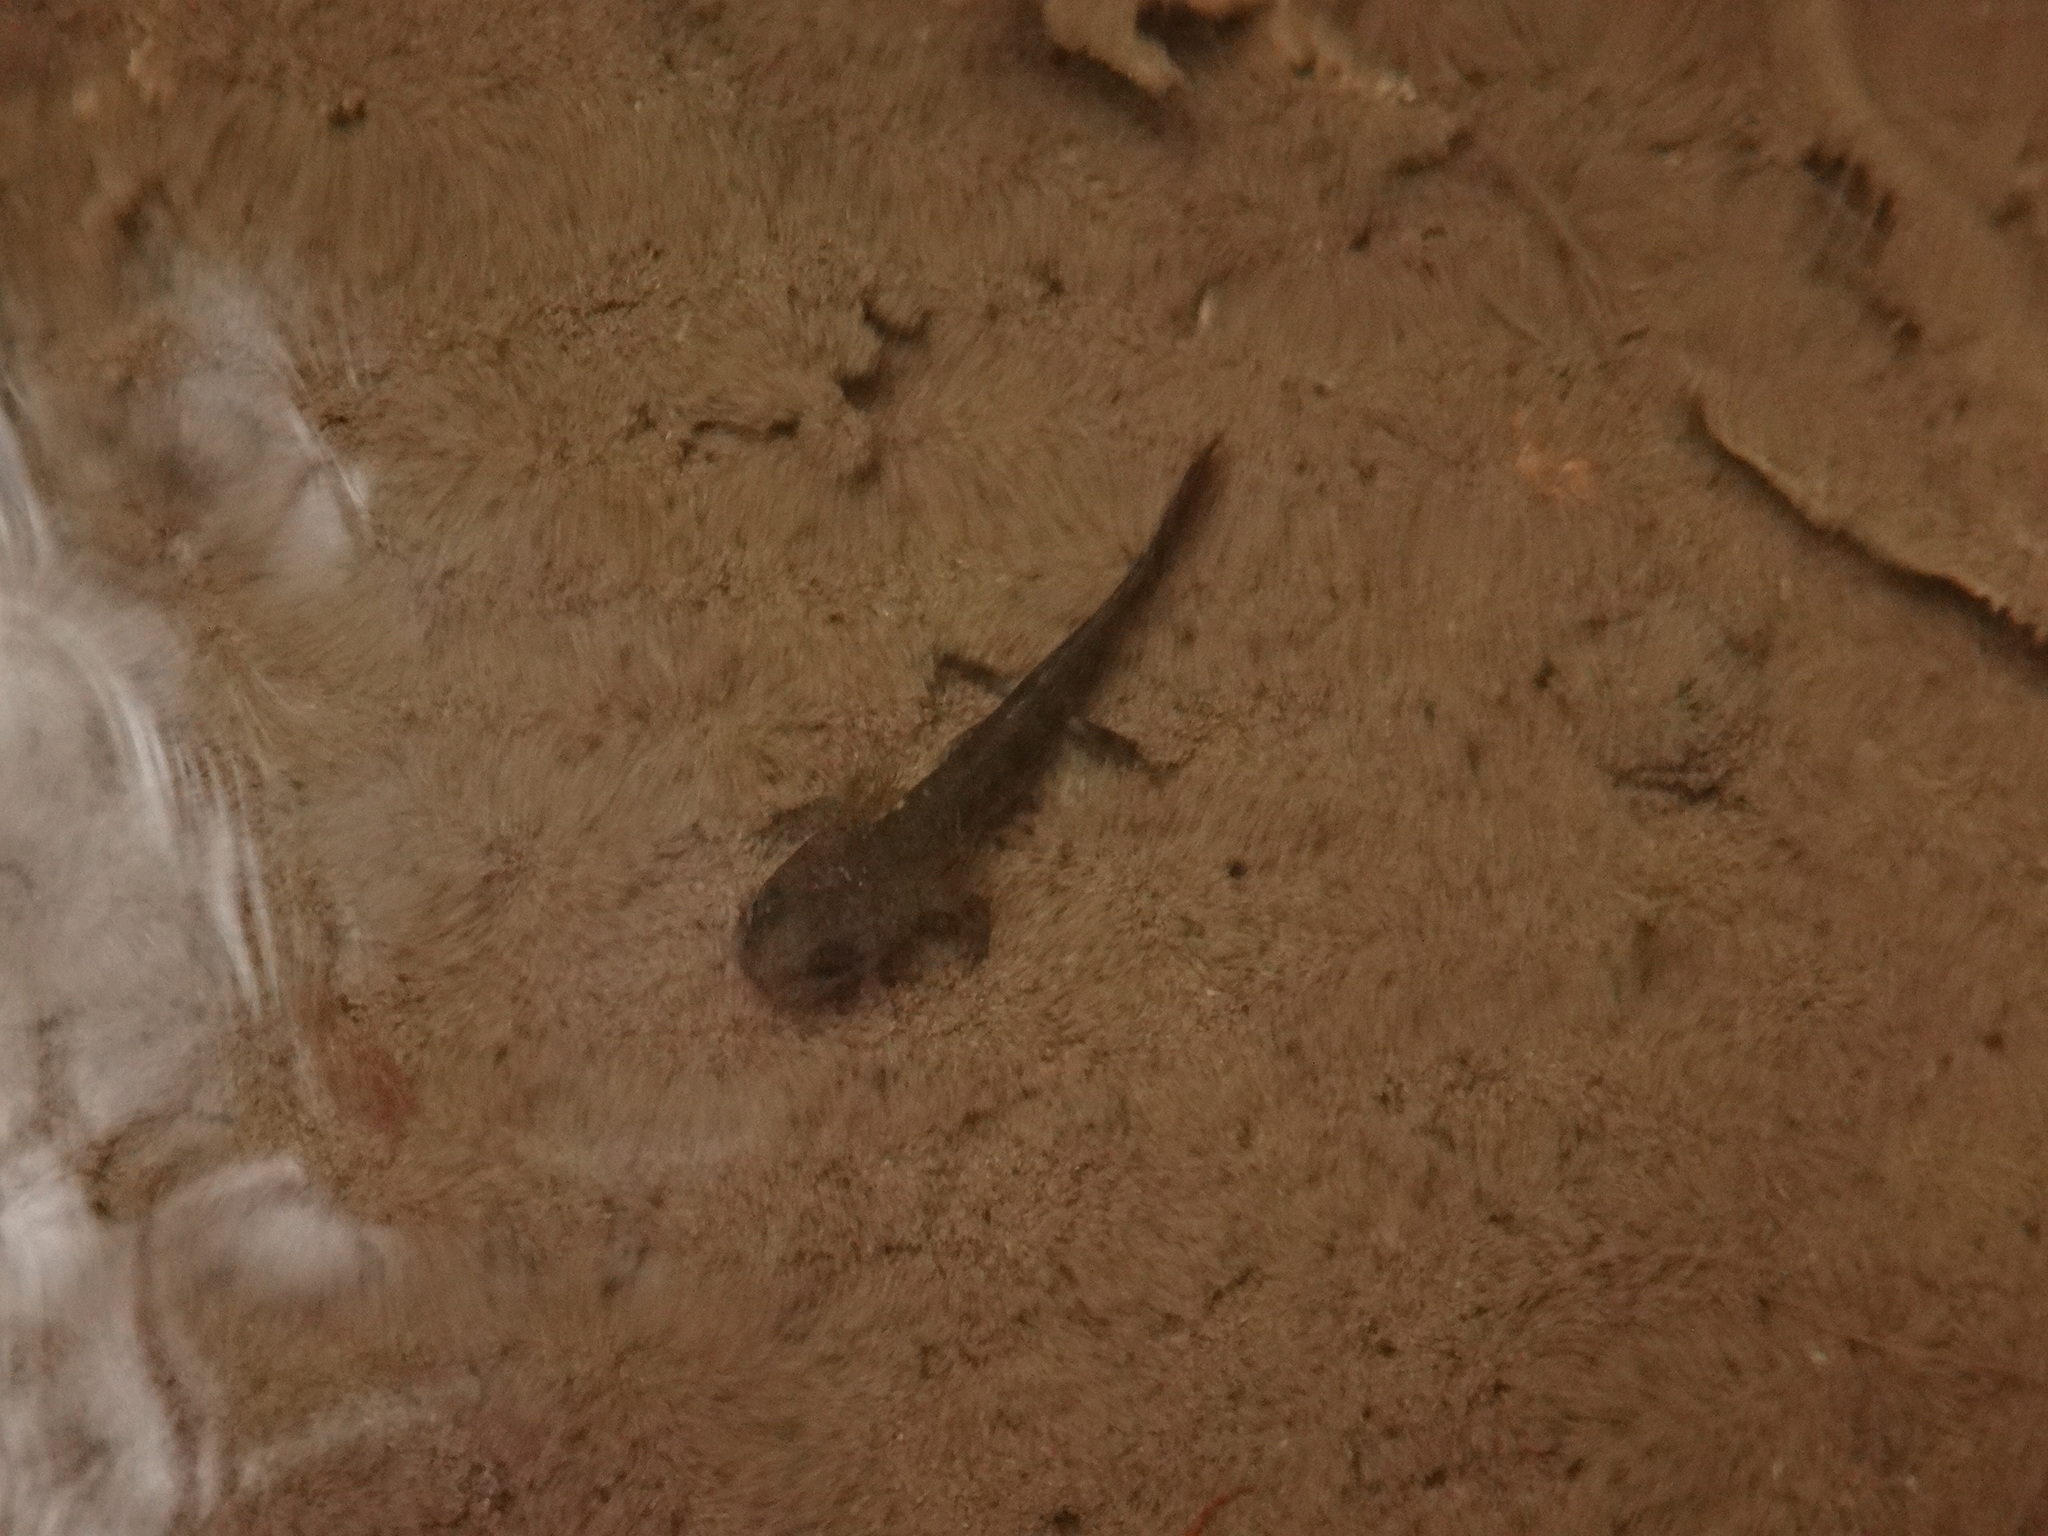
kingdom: Animalia
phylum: Chordata
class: Amphibia
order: Caudata
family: Salamandridae
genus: Salamandra
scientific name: Salamandra salamandra
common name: Fire salamander
